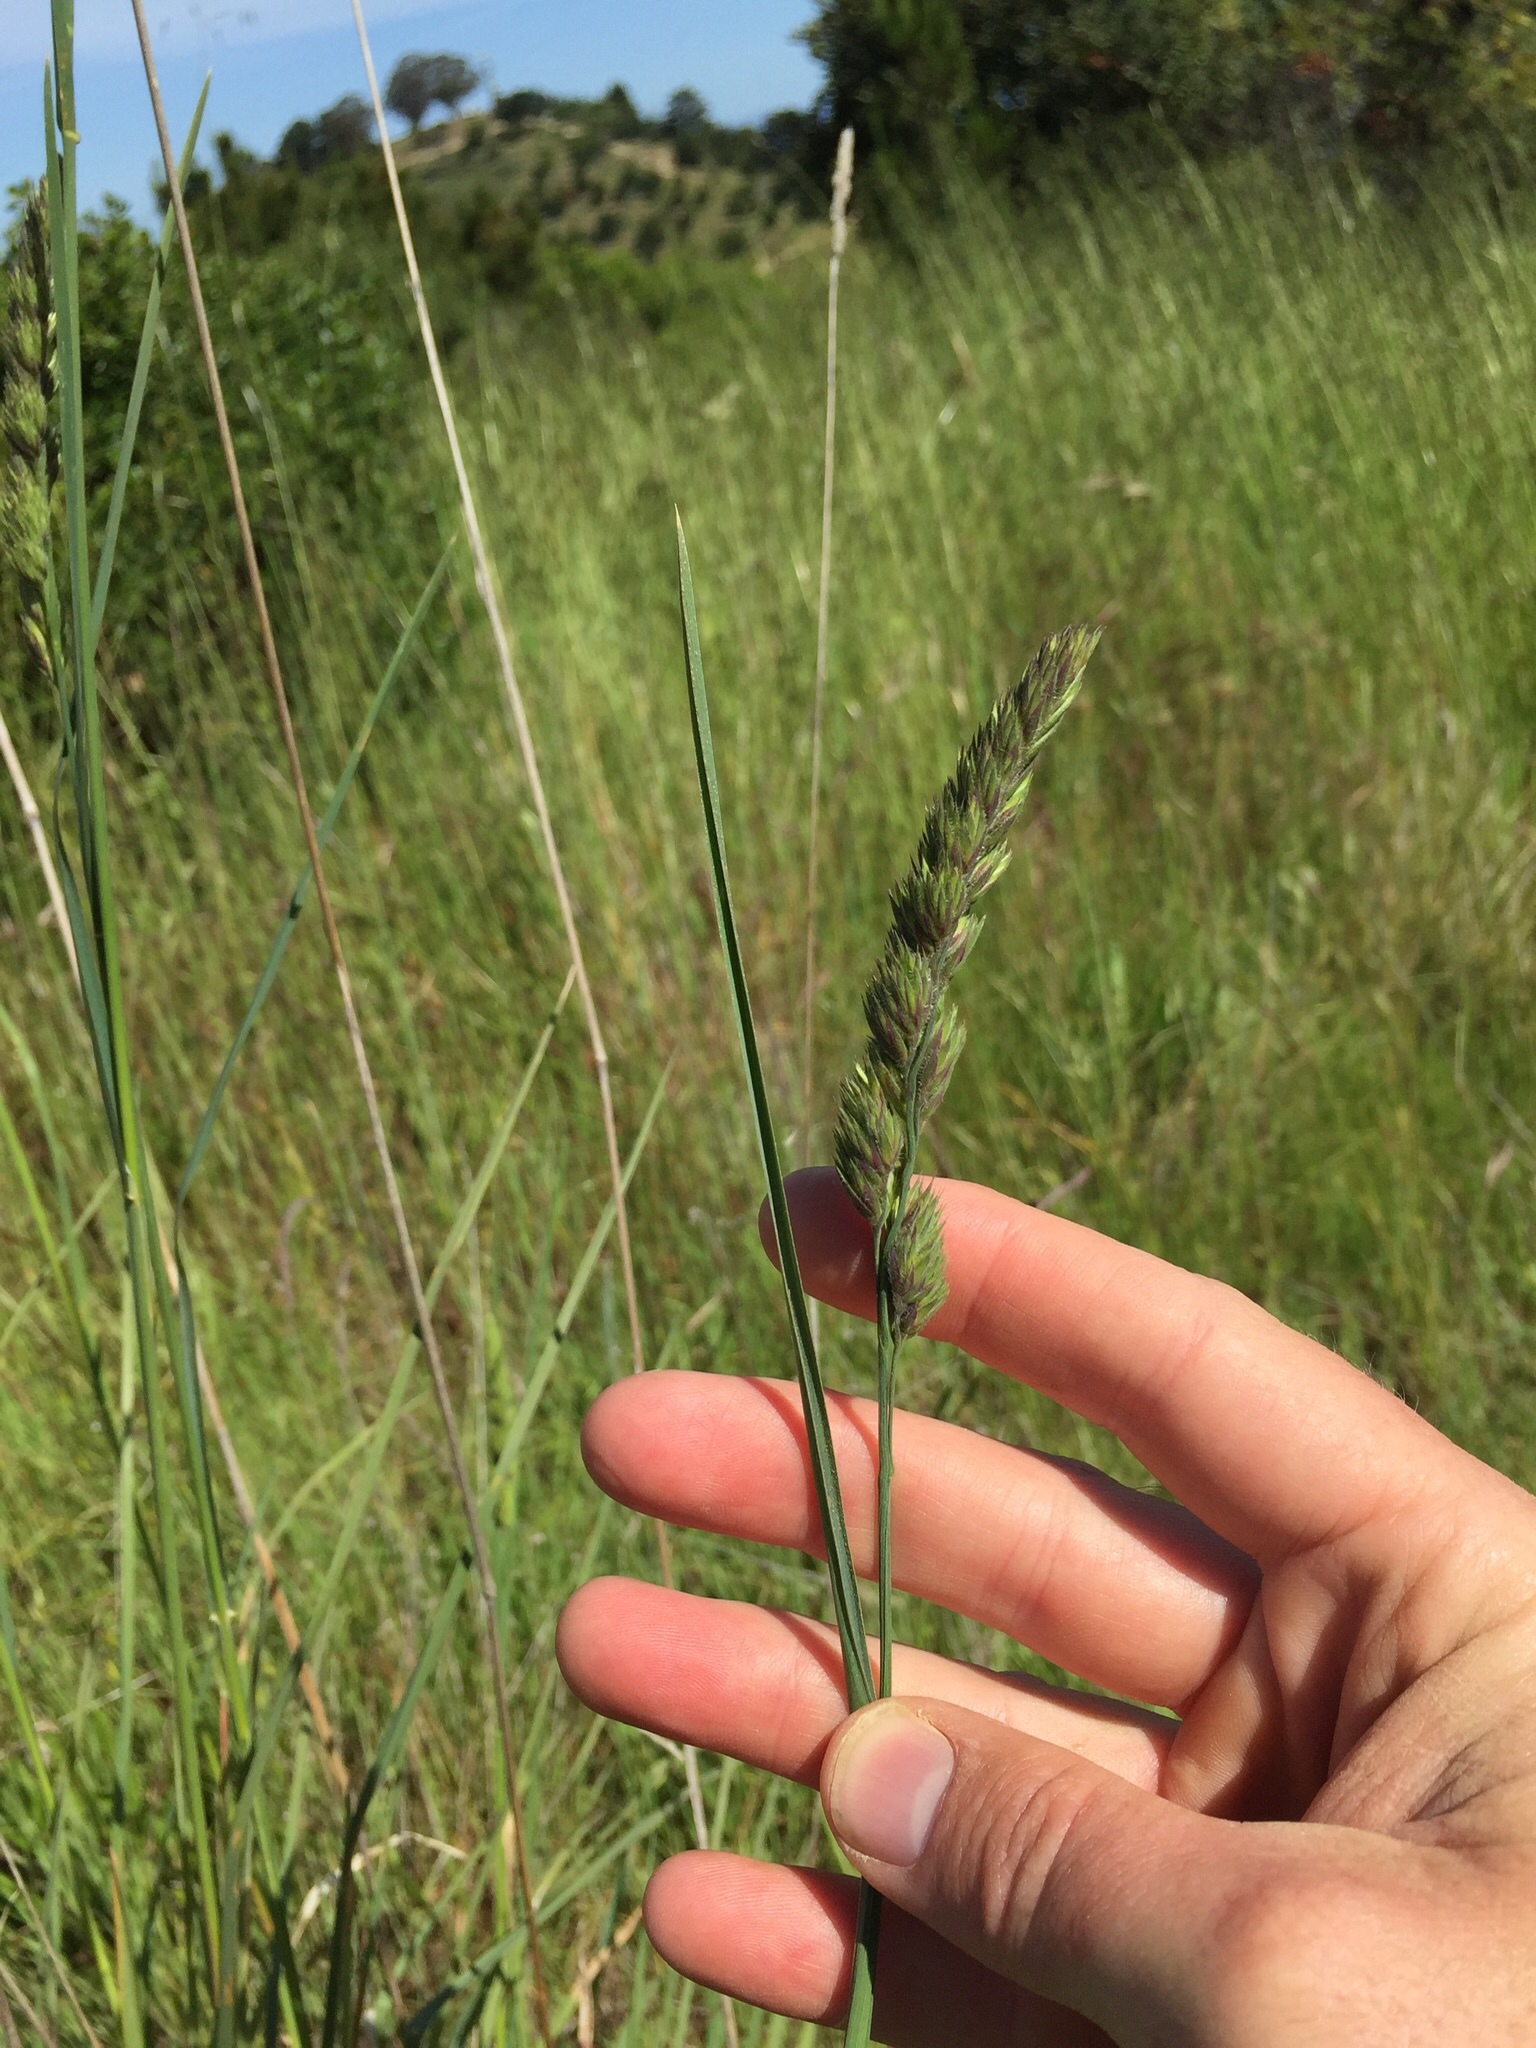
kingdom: Plantae
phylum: Tracheophyta
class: Liliopsida
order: Poales
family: Poaceae
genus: Dactylis
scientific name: Dactylis glomerata
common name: Orchardgrass
